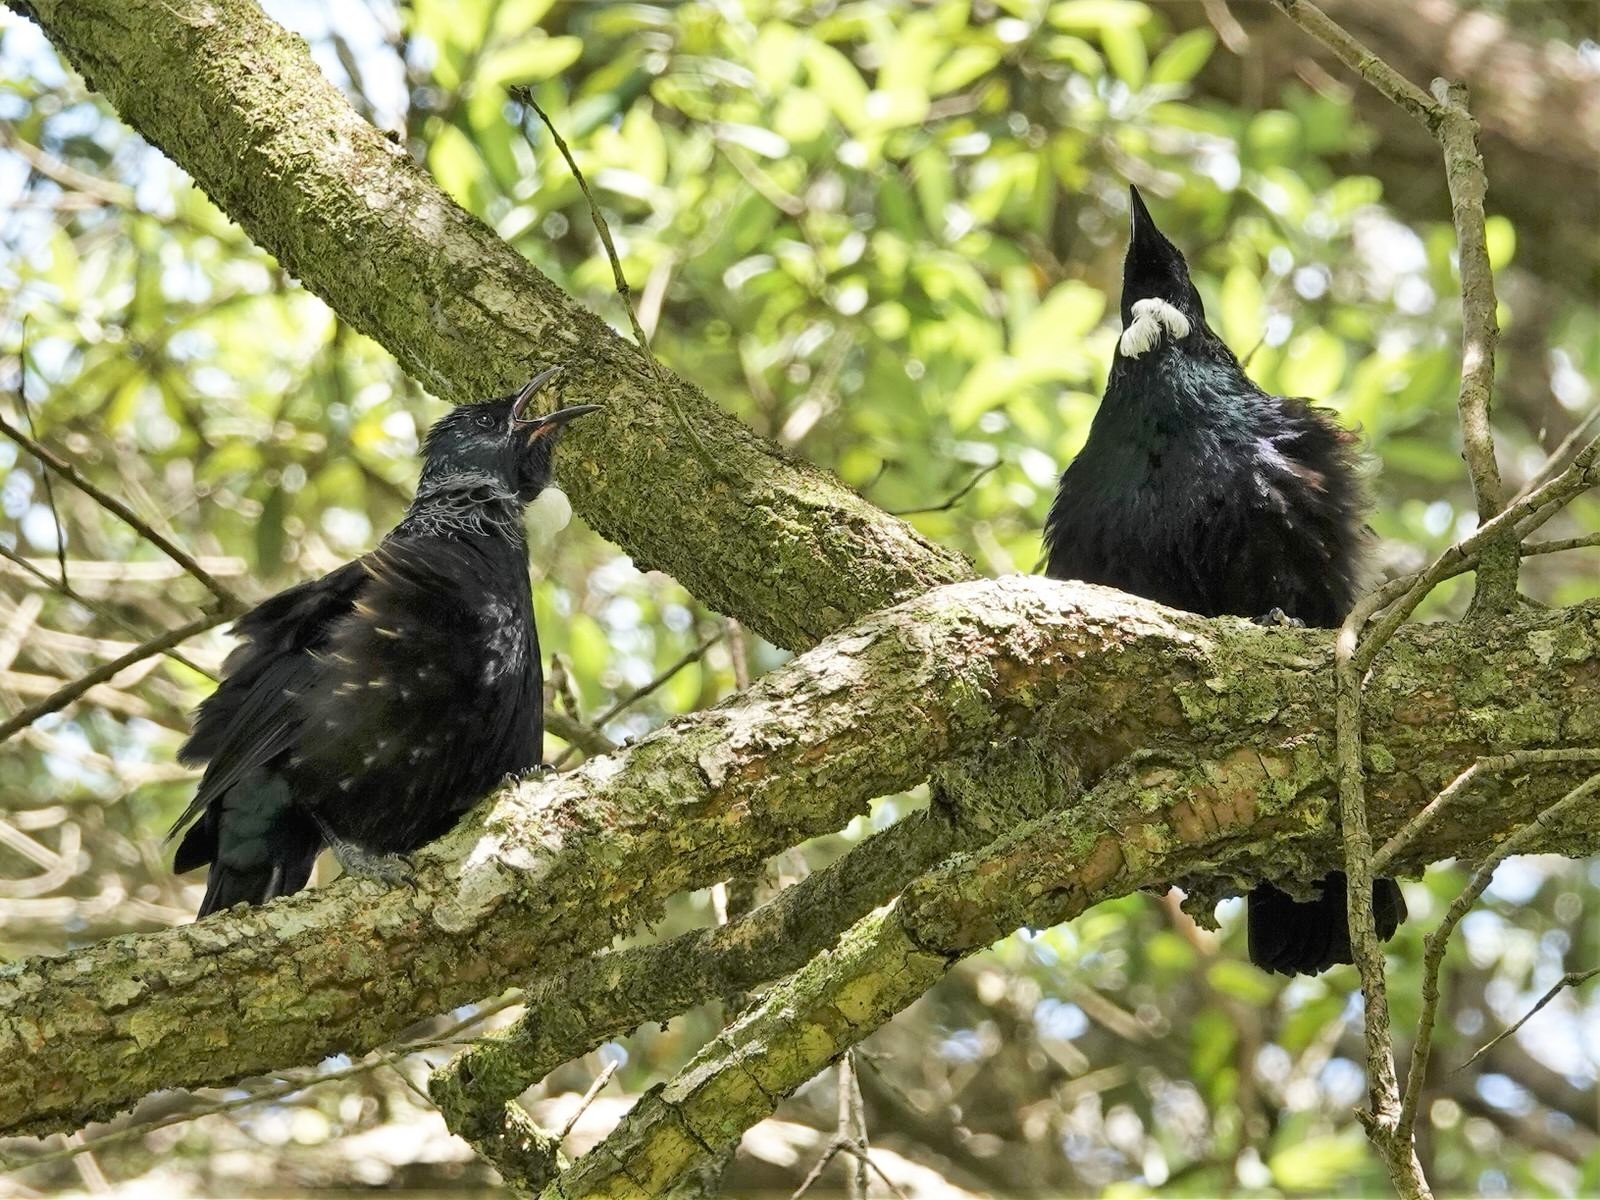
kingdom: Animalia
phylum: Chordata
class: Aves
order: Passeriformes
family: Meliphagidae
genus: Prosthemadera
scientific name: Prosthemadera novaeseelandiae
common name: Tui
